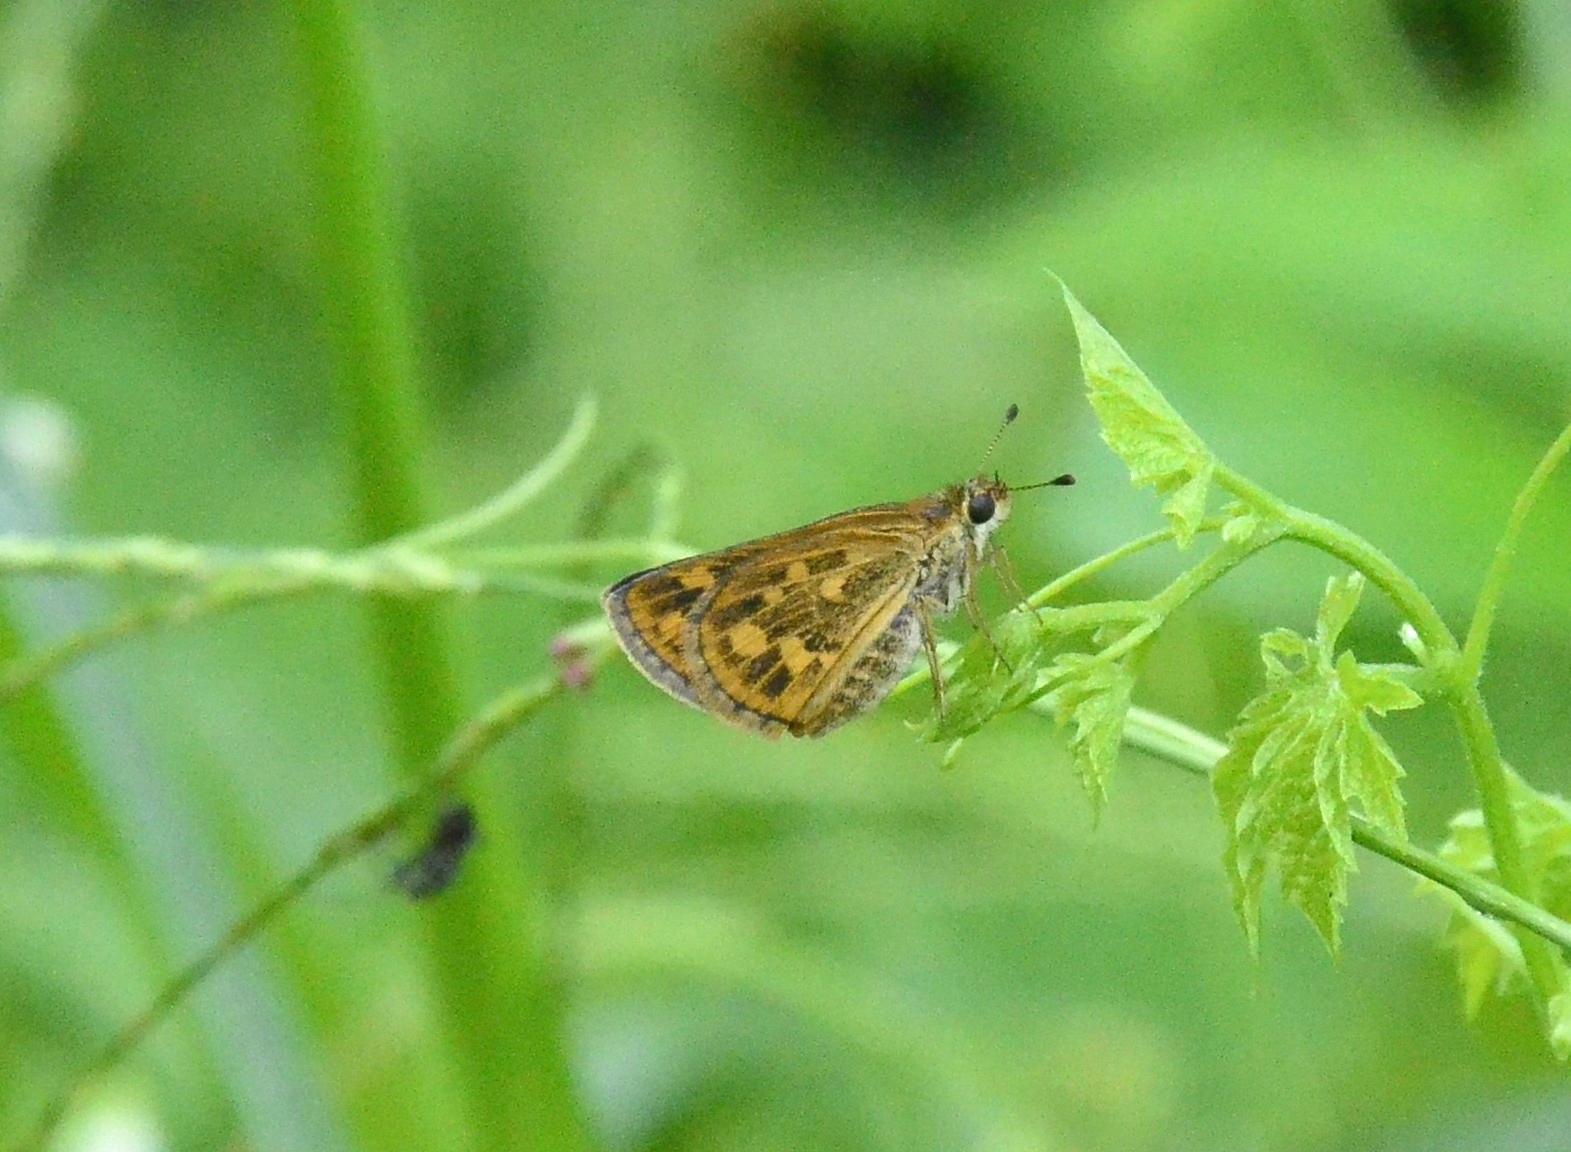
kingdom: Animalia
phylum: Arthropoda
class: Insecta
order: Lepidoptera
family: Hesperiidae
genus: Taractrocera
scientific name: Taractrocera ceramas
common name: Tamil grass dart
